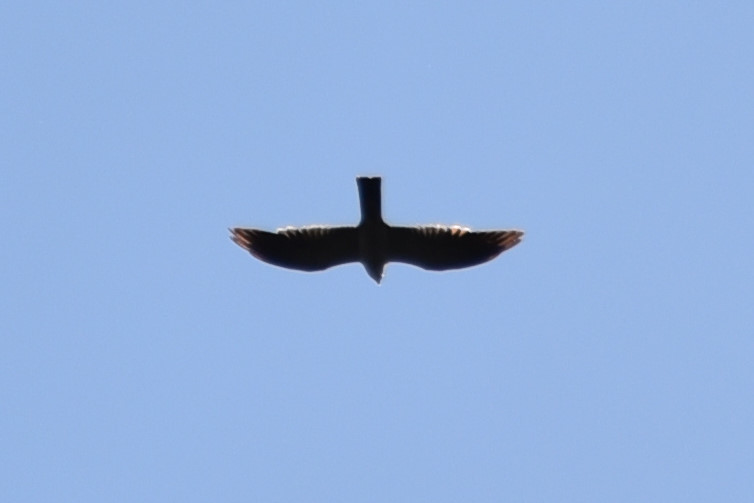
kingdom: Animalia
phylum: Chordata
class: Aves
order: Accipitriformes
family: Accipitridae
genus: Ictinia
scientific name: Ictinia mississippiensis
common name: Mississippi kite
